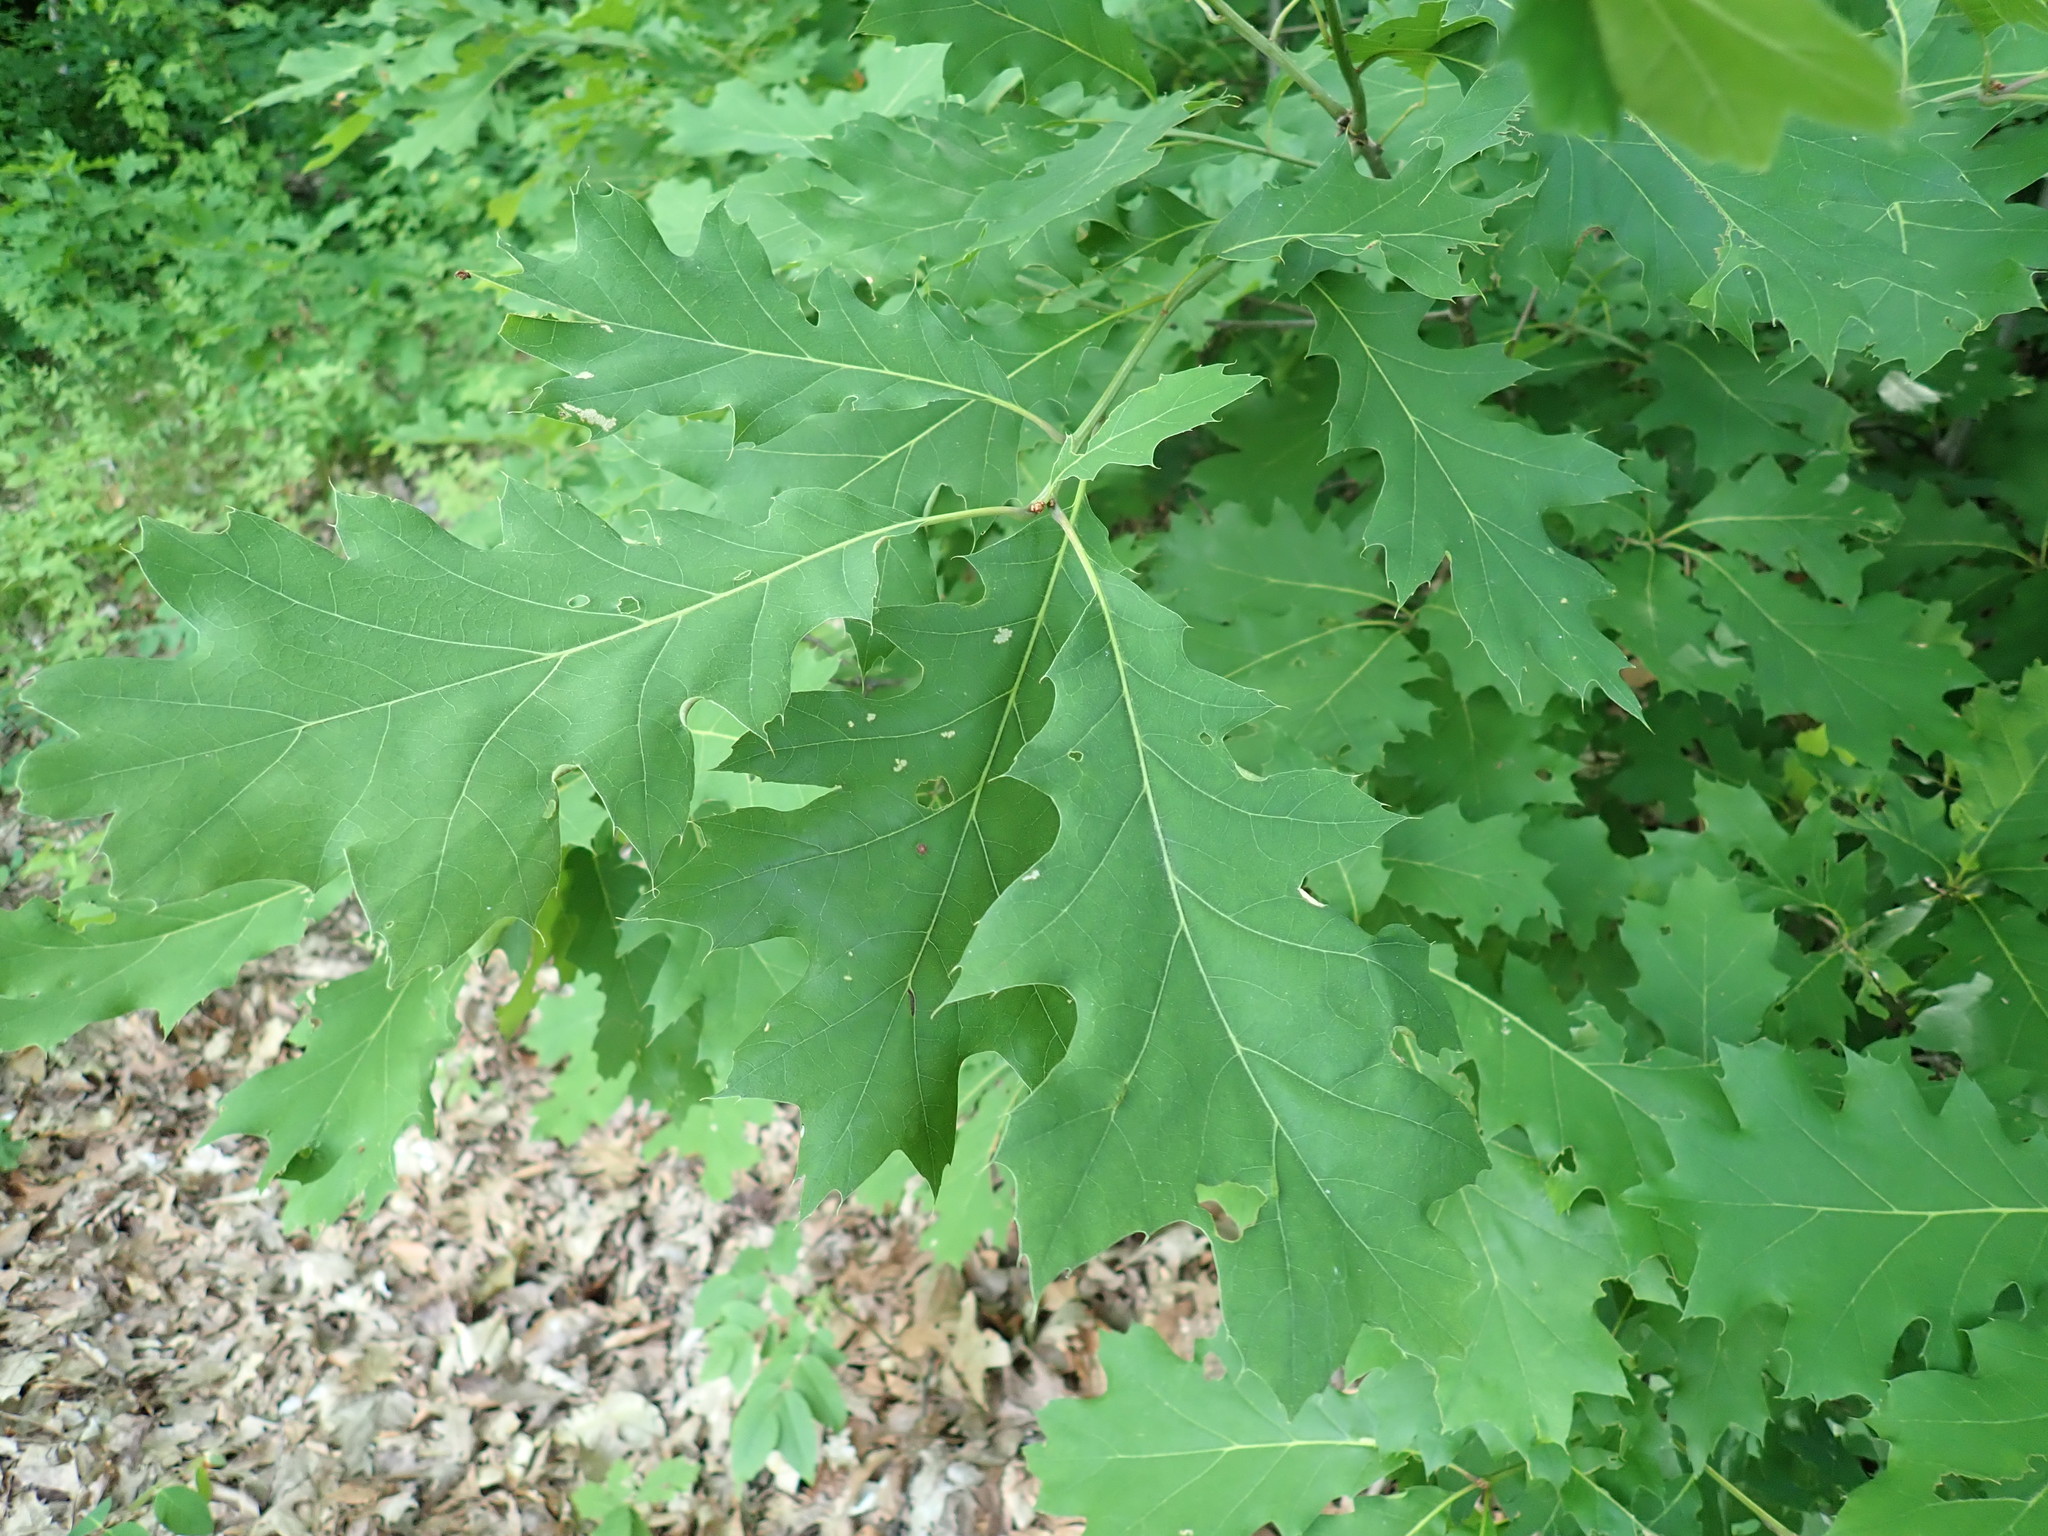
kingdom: Plantae
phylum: Tracheophyta
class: Magnoliopsida
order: Fagales
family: Fagaceae
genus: Quercus
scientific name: Quercus rubra
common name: Red oak
